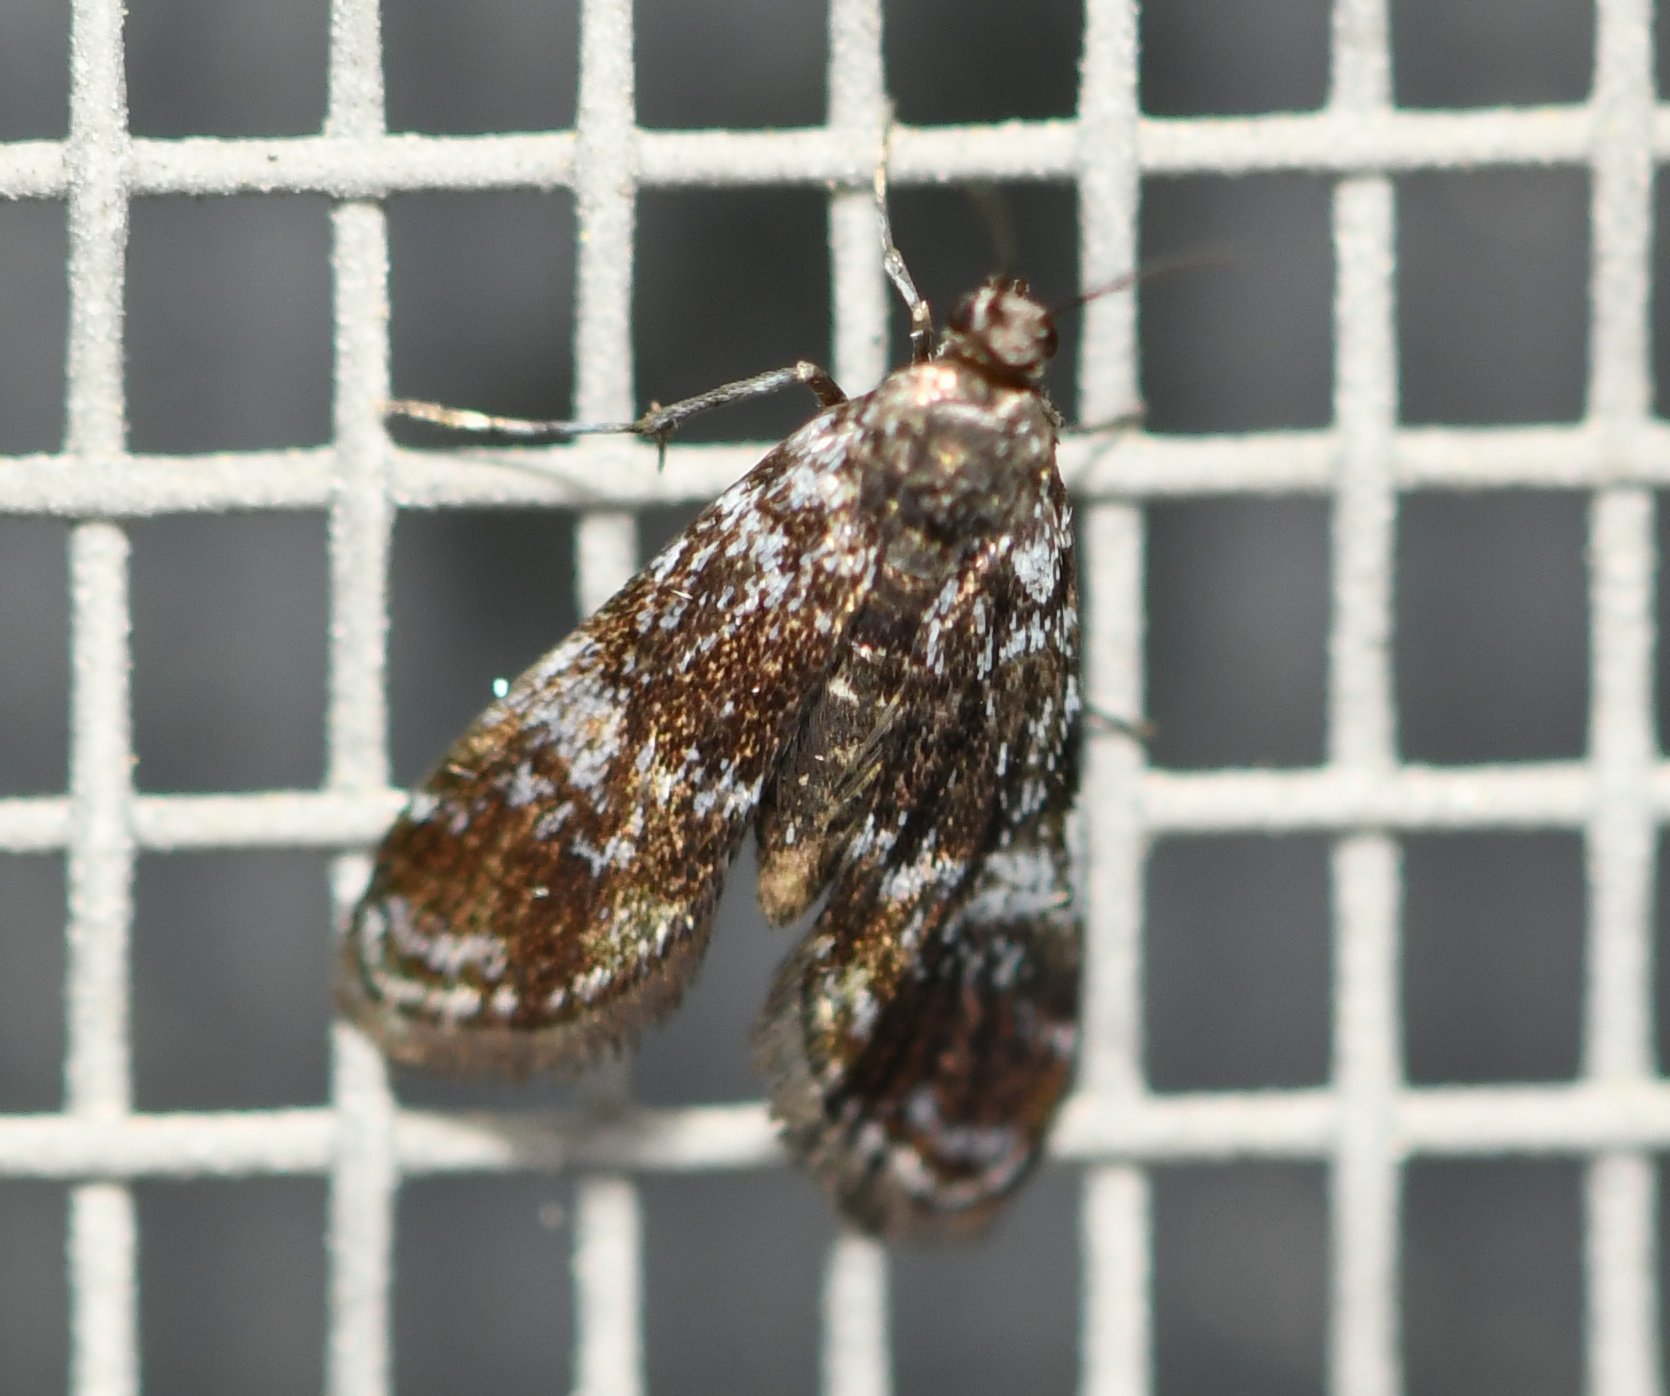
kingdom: Animalia
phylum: Arthropoda
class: Insecta
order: Lepidoptera
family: Crambidae
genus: Elophila
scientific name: Elophila obliteralis
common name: Waterlily leafcutter moth
